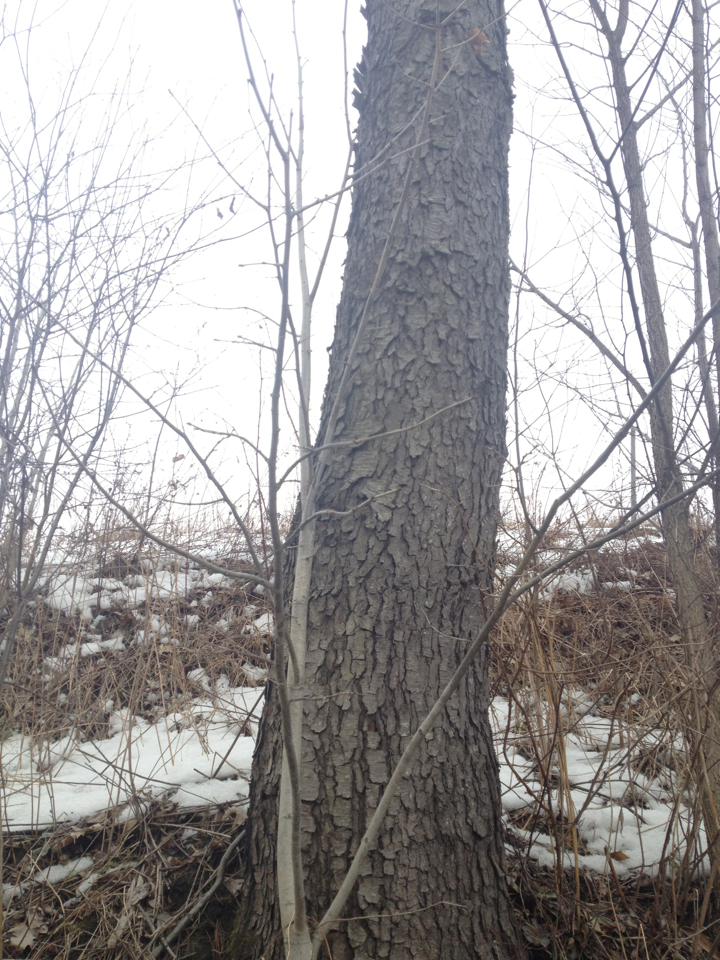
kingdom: Plantae
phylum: Tracheophyta
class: Magnoliopsida
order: Rosales
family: Rosaceae
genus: Prunus
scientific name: Prunus serotina
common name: Black cherry
